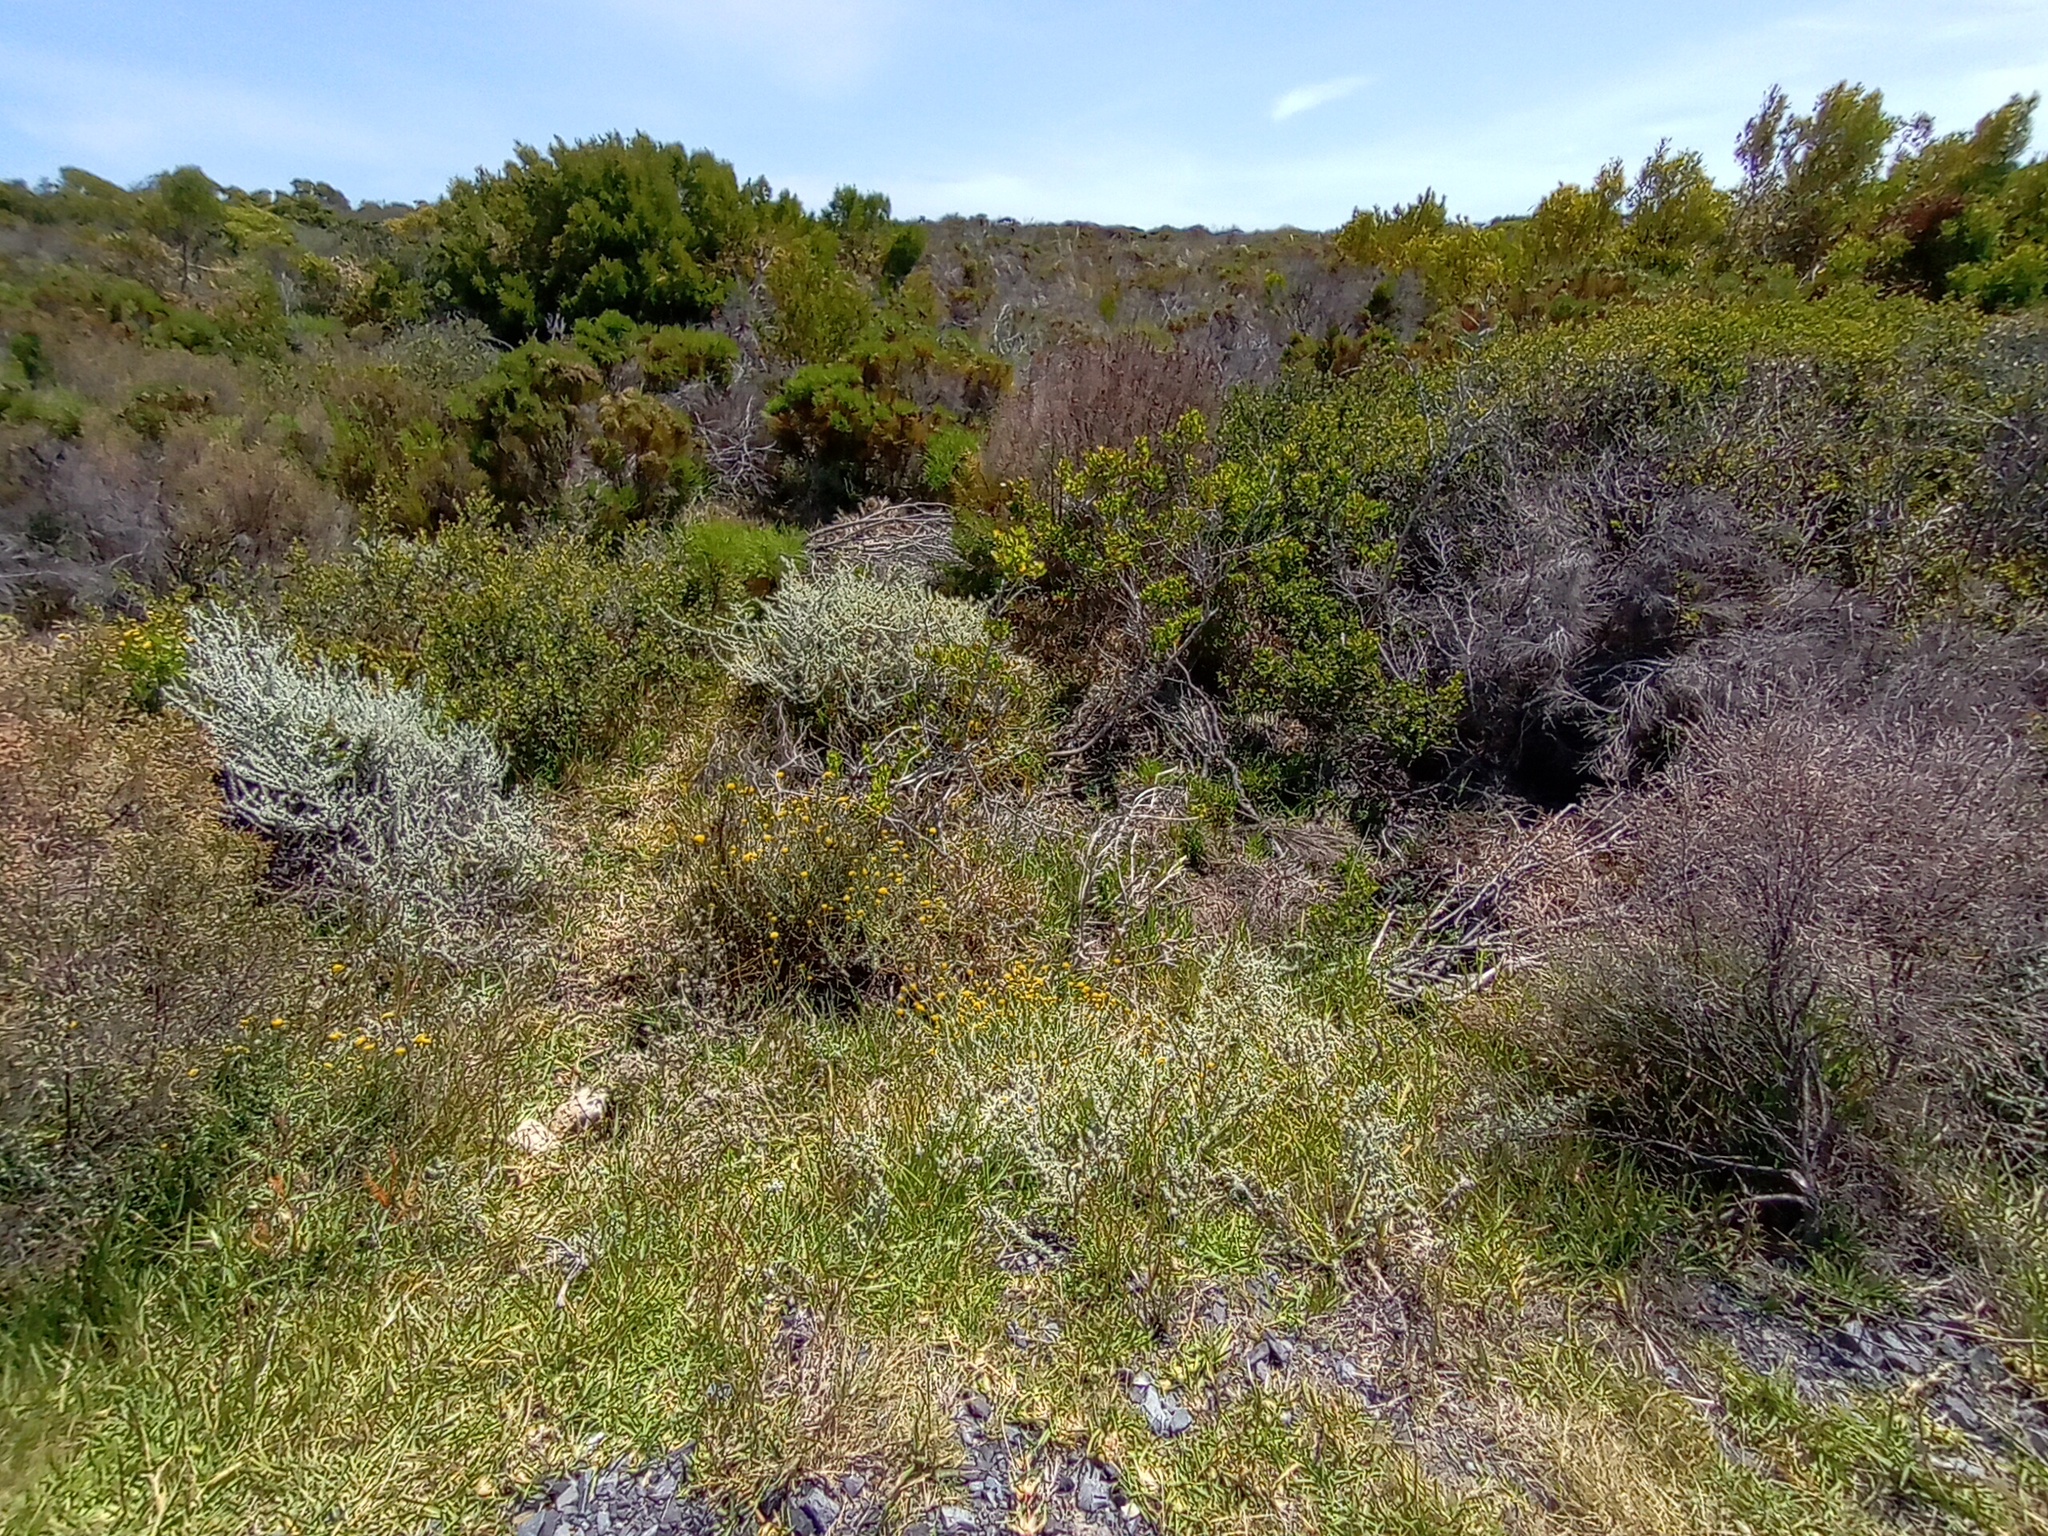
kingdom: Plantae
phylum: Tracheophyta
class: Liliopsida
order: Poales
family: Poaceae
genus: Stenotaphrum
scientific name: Stenotaphrum secundatum
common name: St. augustine grass
